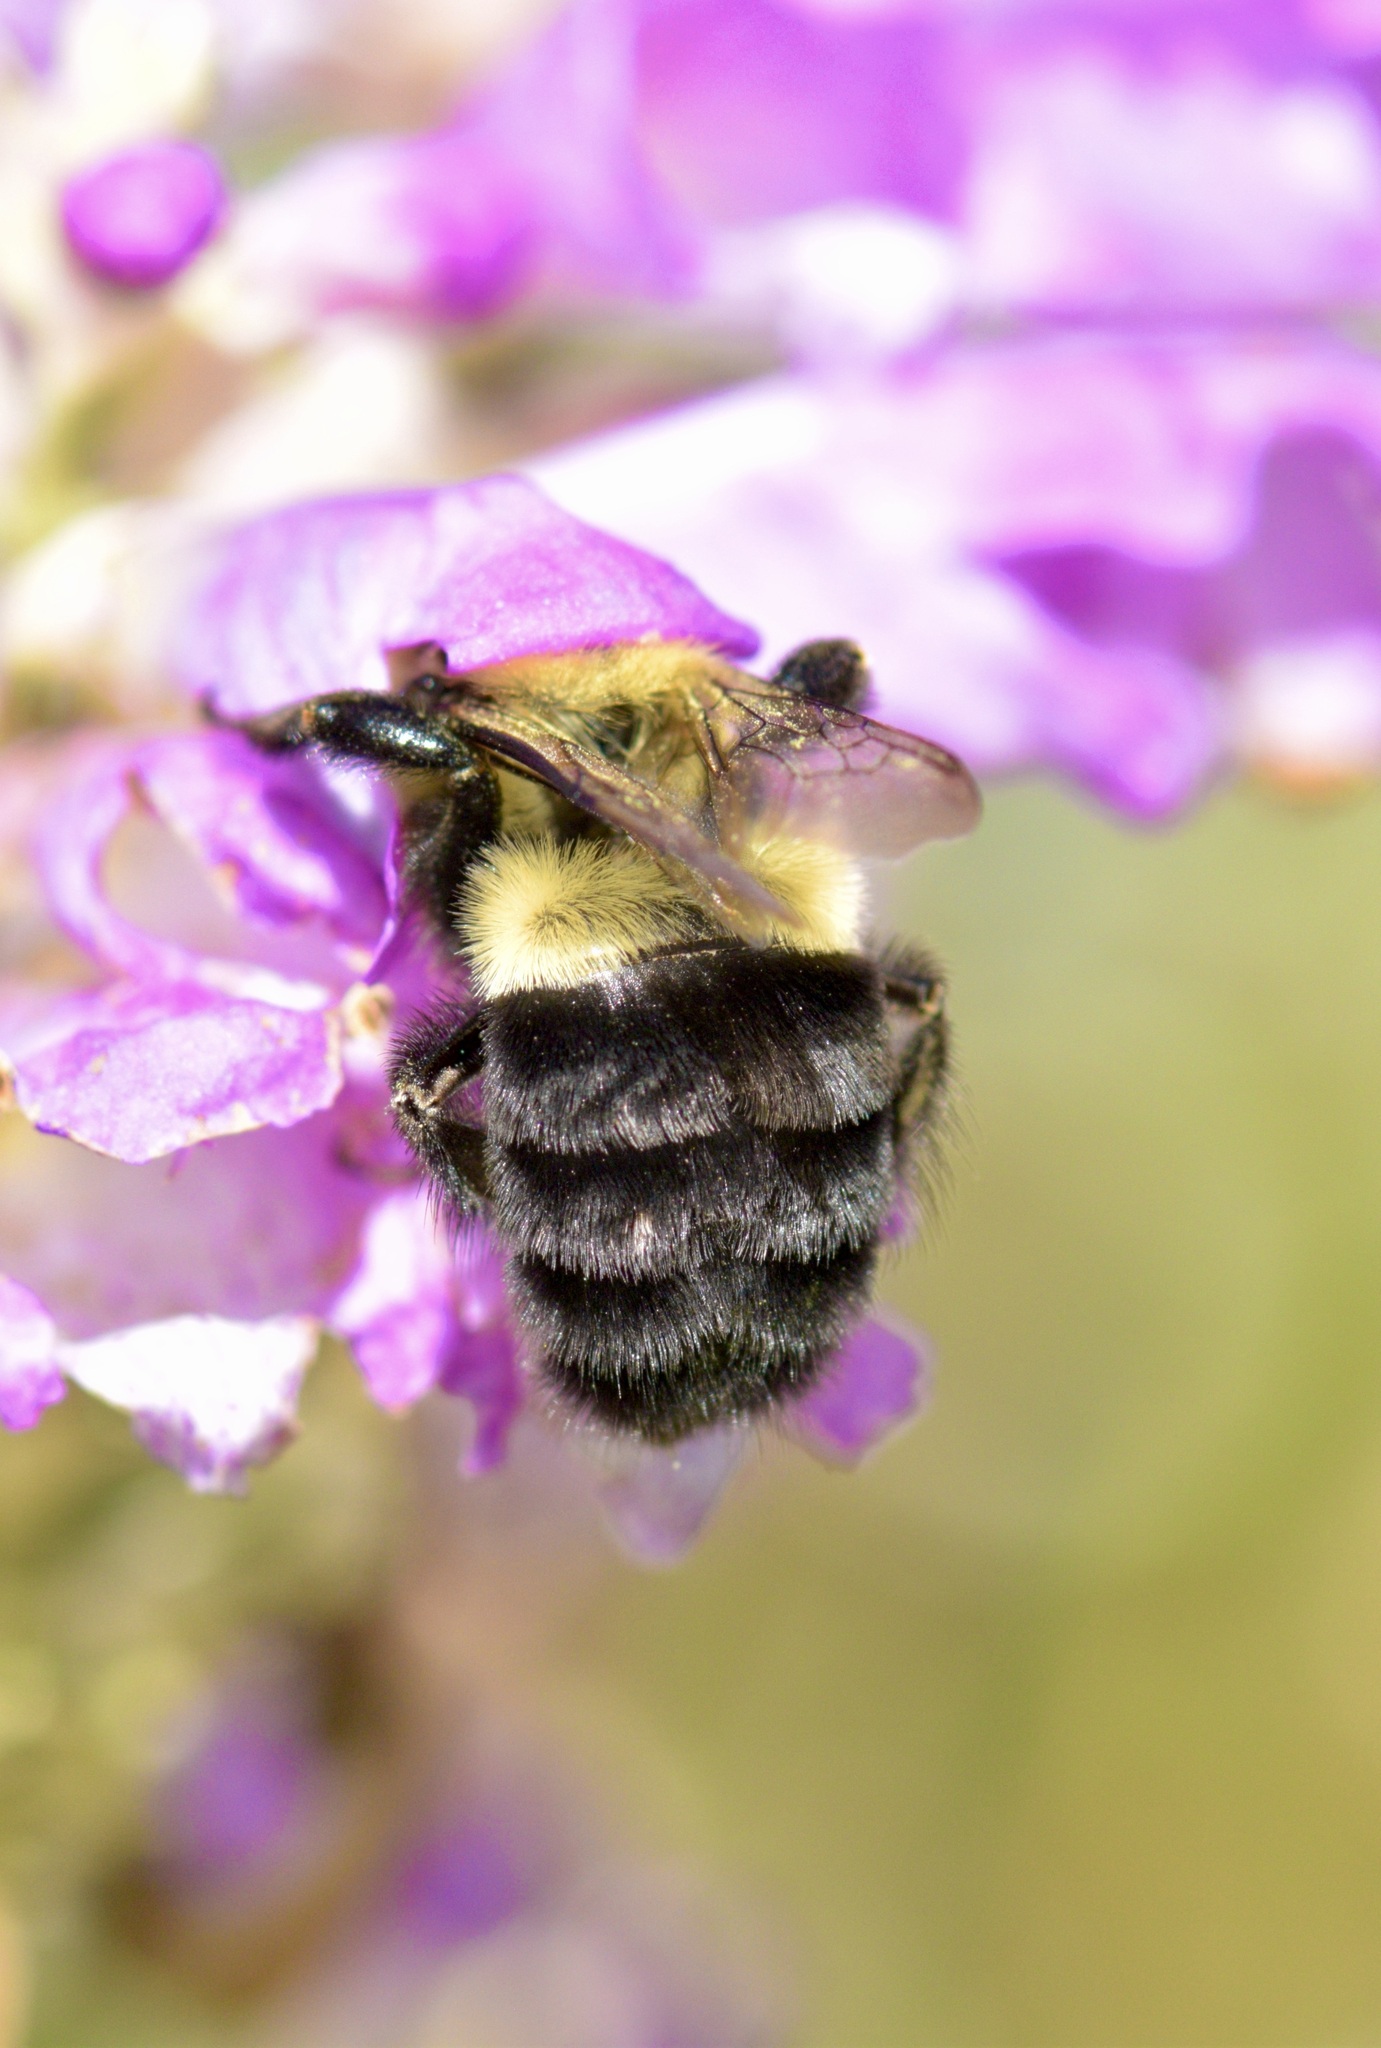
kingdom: Animalia
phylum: Arthropoda
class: Insecta
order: Hymenoptera
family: Apidae
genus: Bombus
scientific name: Bombus impatiens
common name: Common eastern bumble bee
